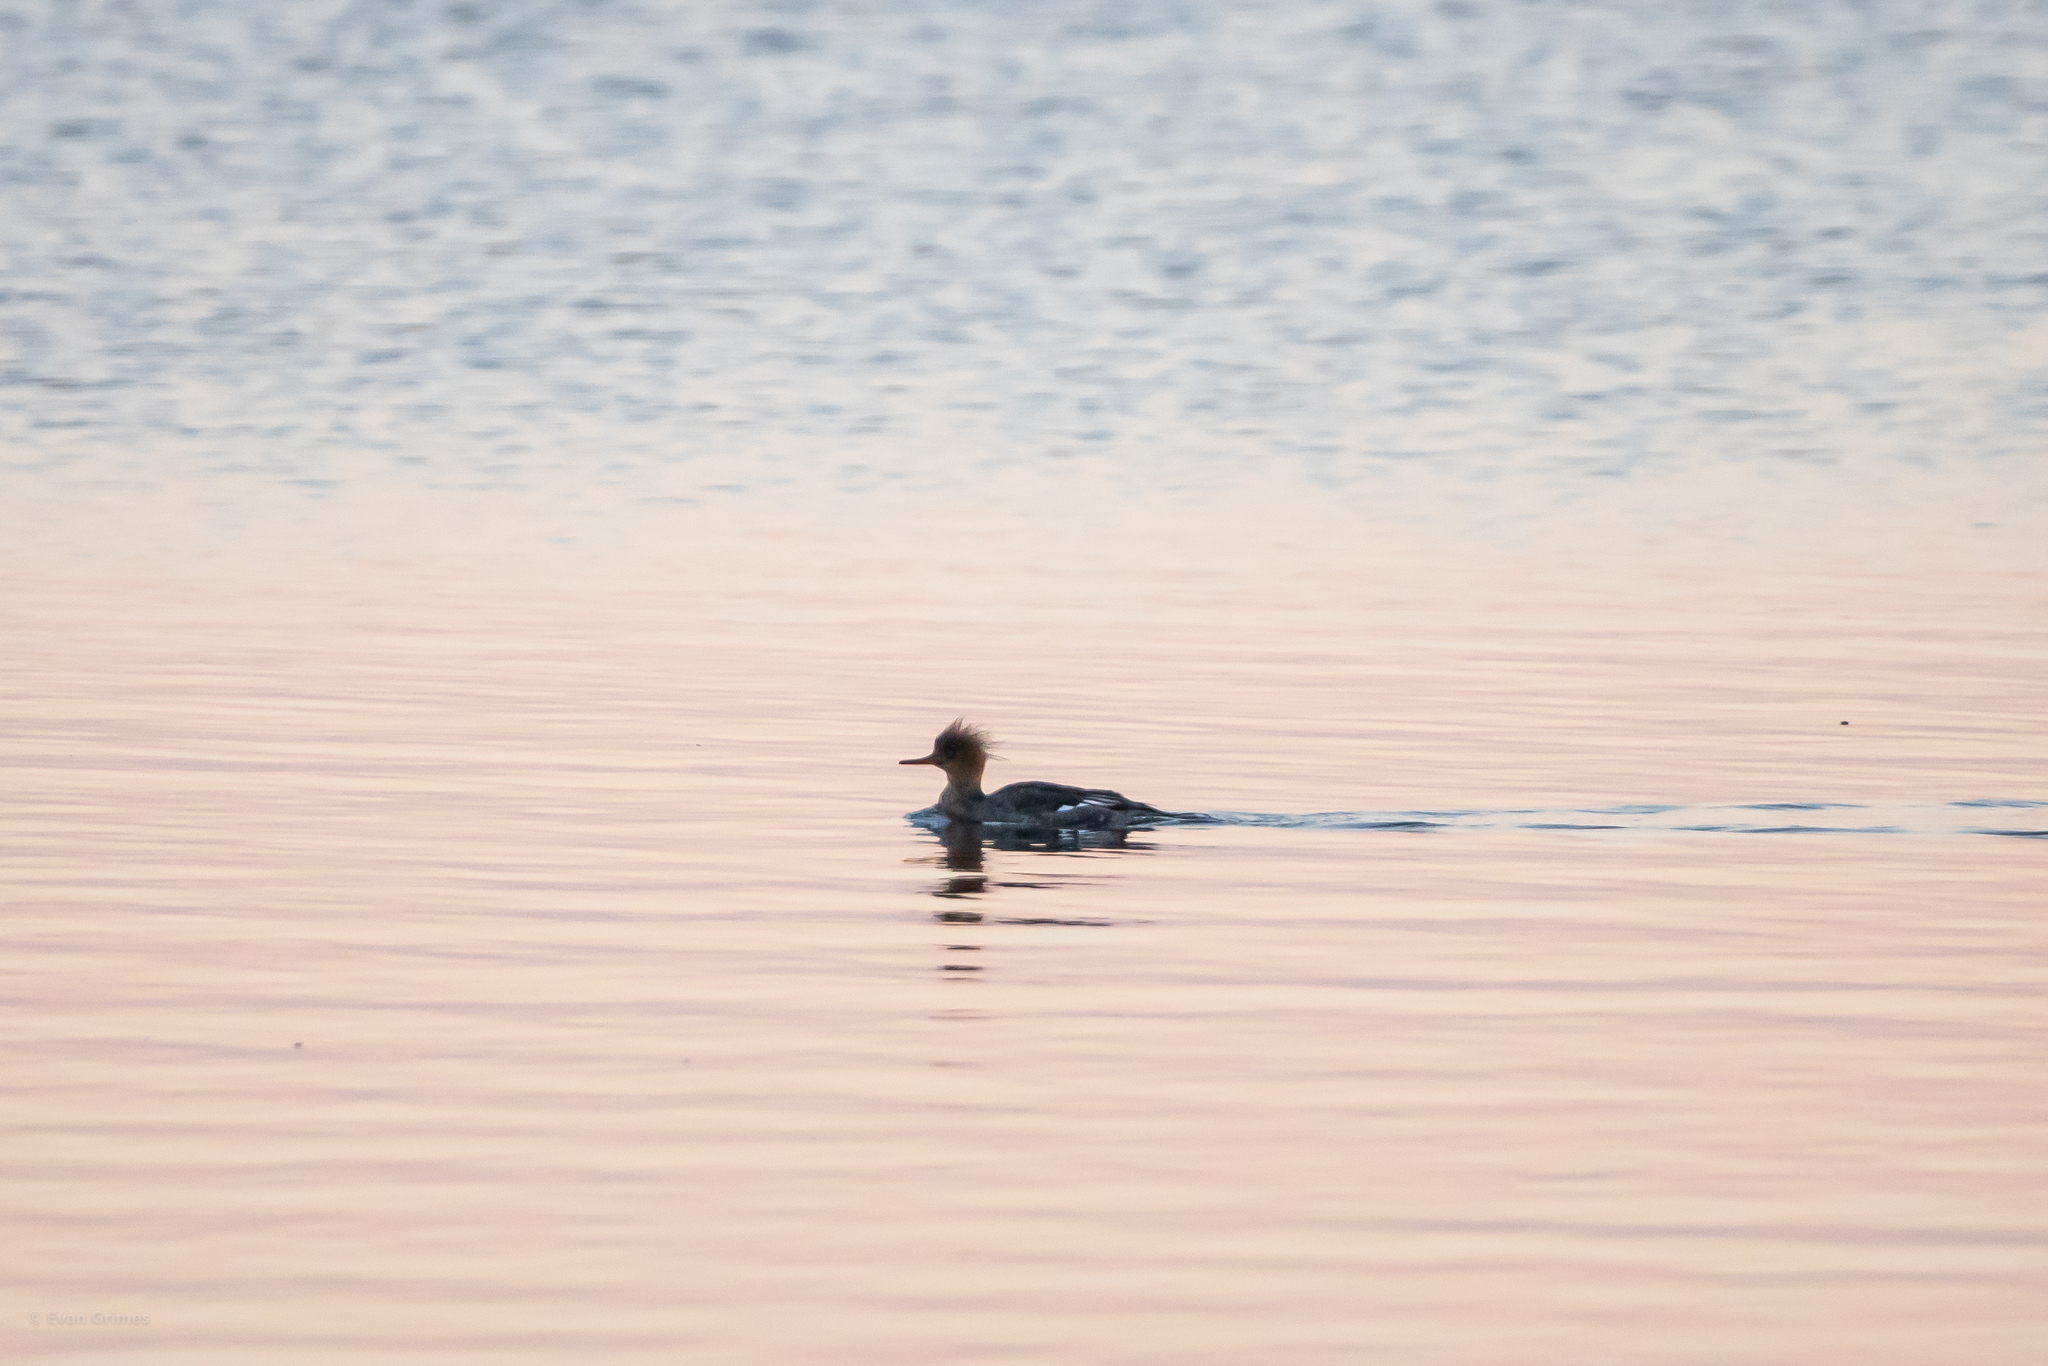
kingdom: Animalia
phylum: Chordata
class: Aves
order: Anseriformes
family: Anatidae
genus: Mergus
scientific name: Mergus serrator
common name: Red-breasted merganser
